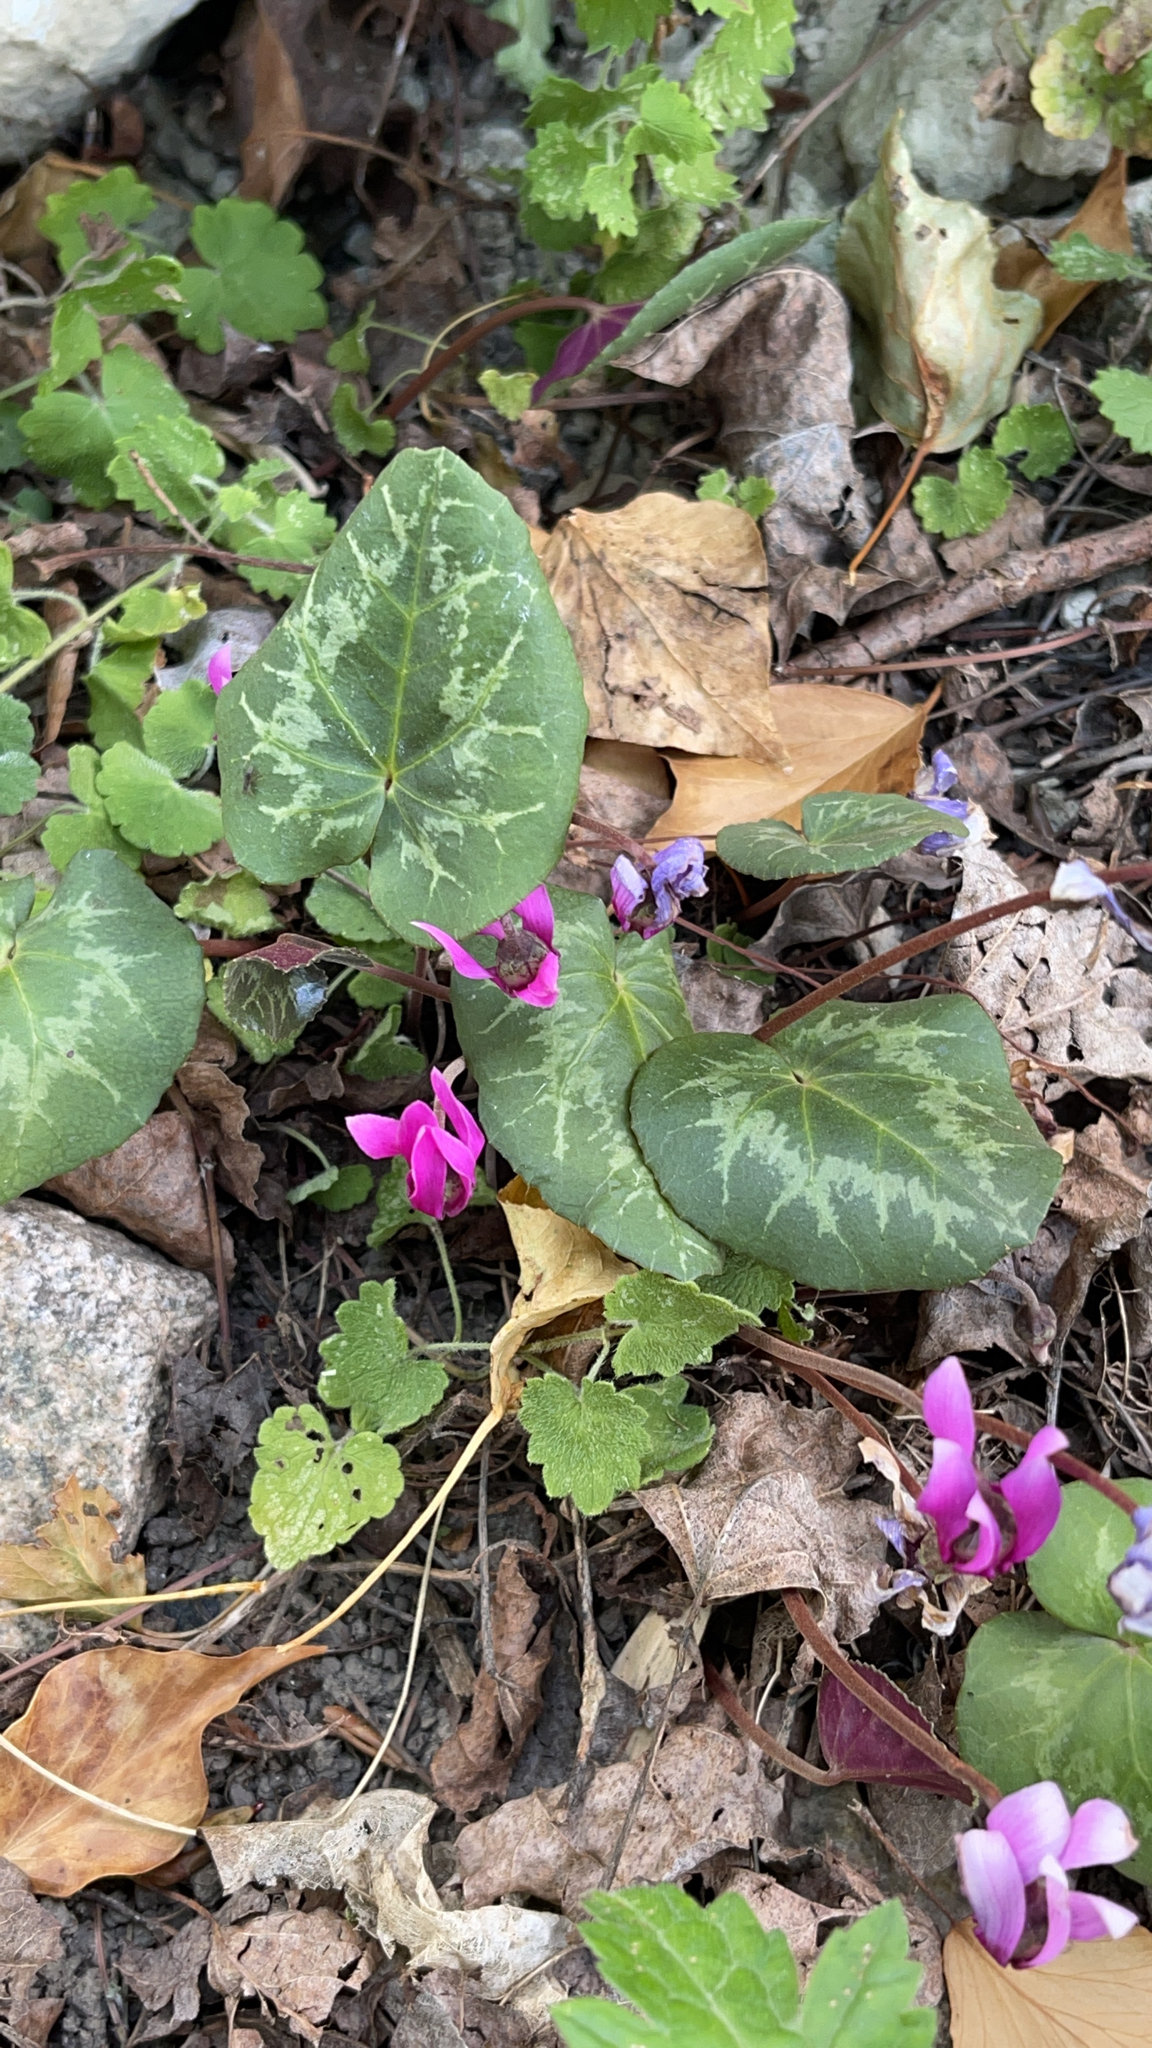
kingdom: Plantae
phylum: Tracheophyta
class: Magnoliopsida
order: Ericales
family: Primulaceae
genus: Cyclamen
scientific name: Cyclamen purpurascens
